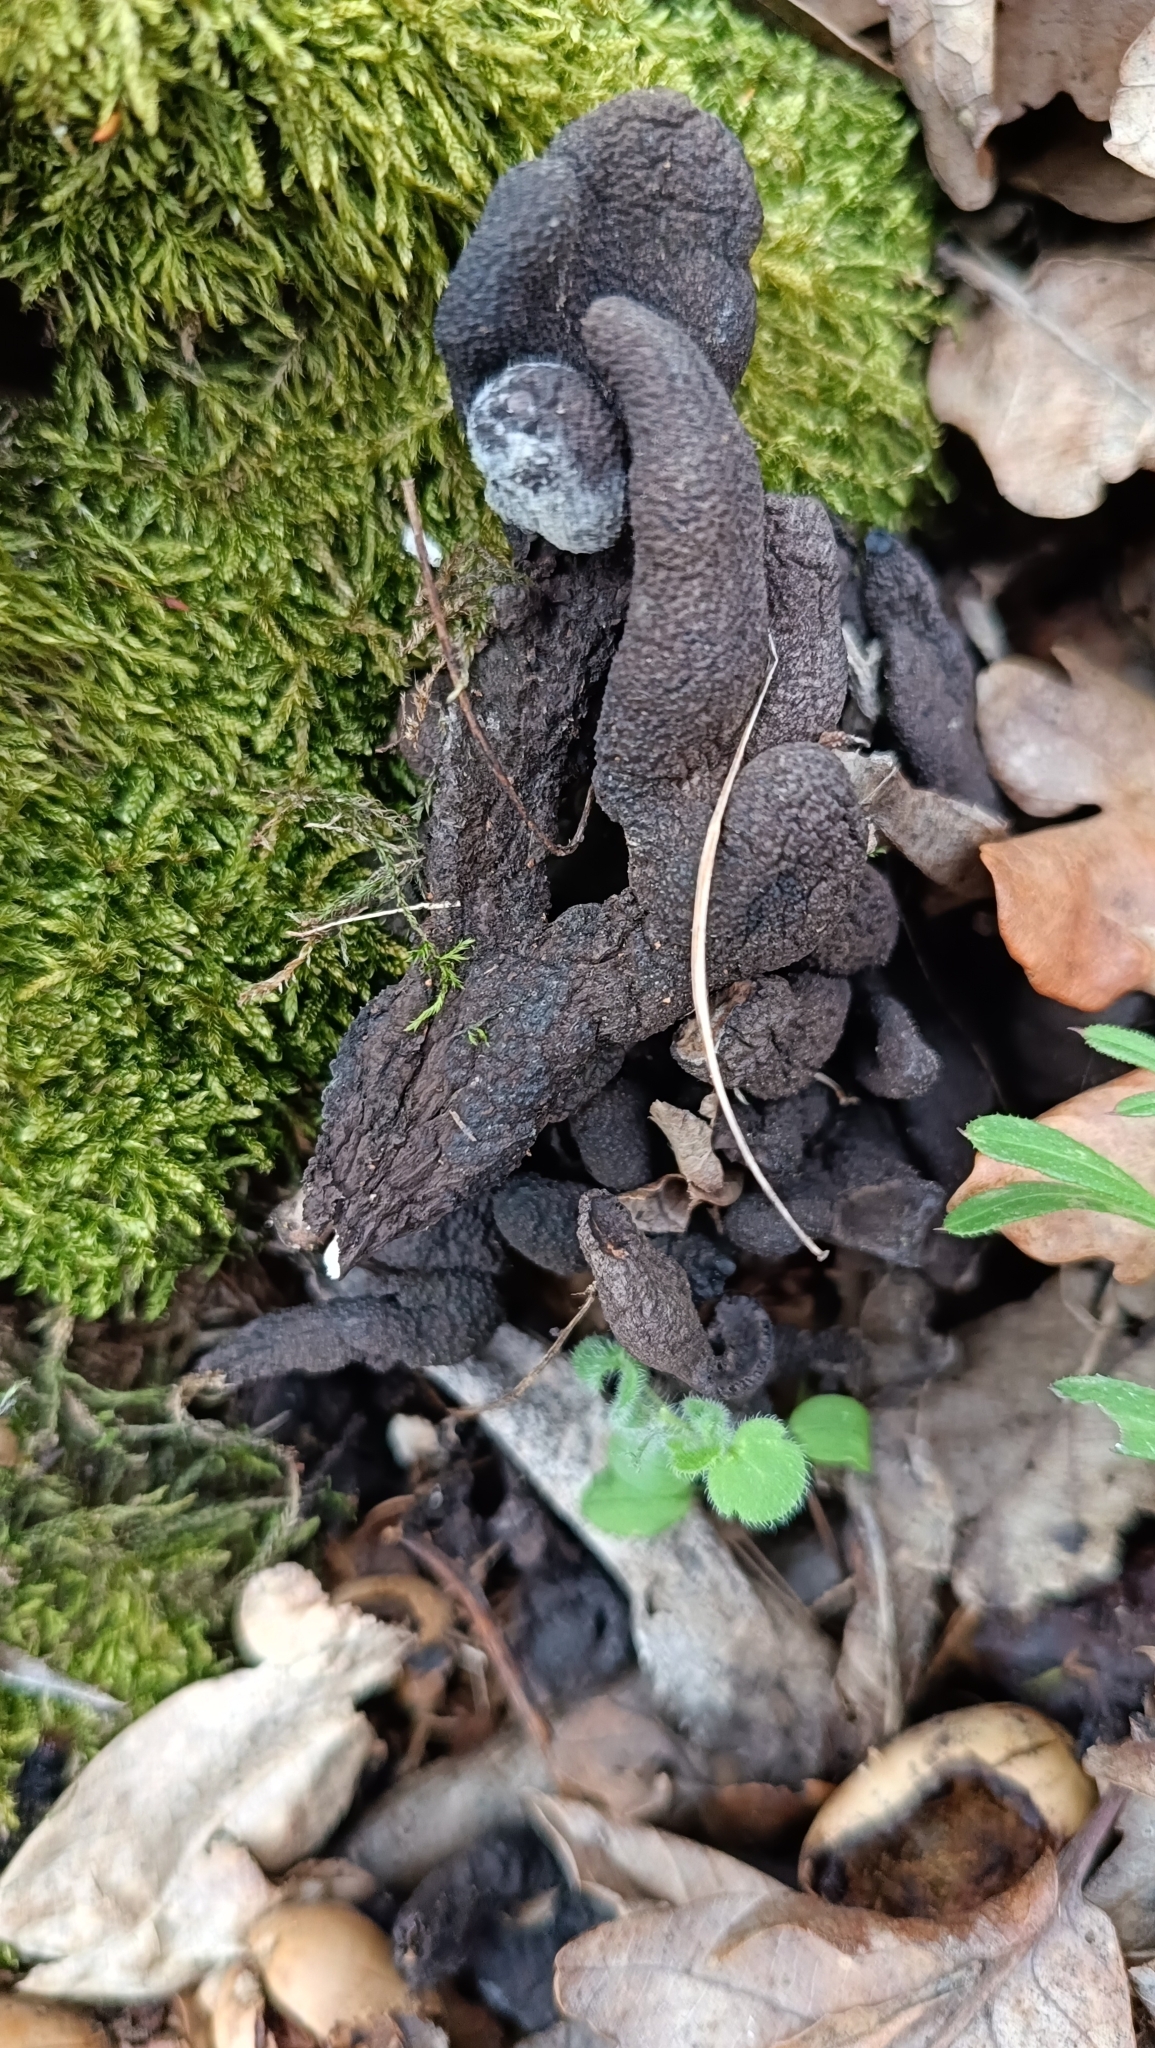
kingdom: Fungi
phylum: Ascomycota
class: Sordariomycetes
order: Xylariales
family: Xylariaceae
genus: Xylaria
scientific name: Xylaria polymorpha
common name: Dead man's fingers
